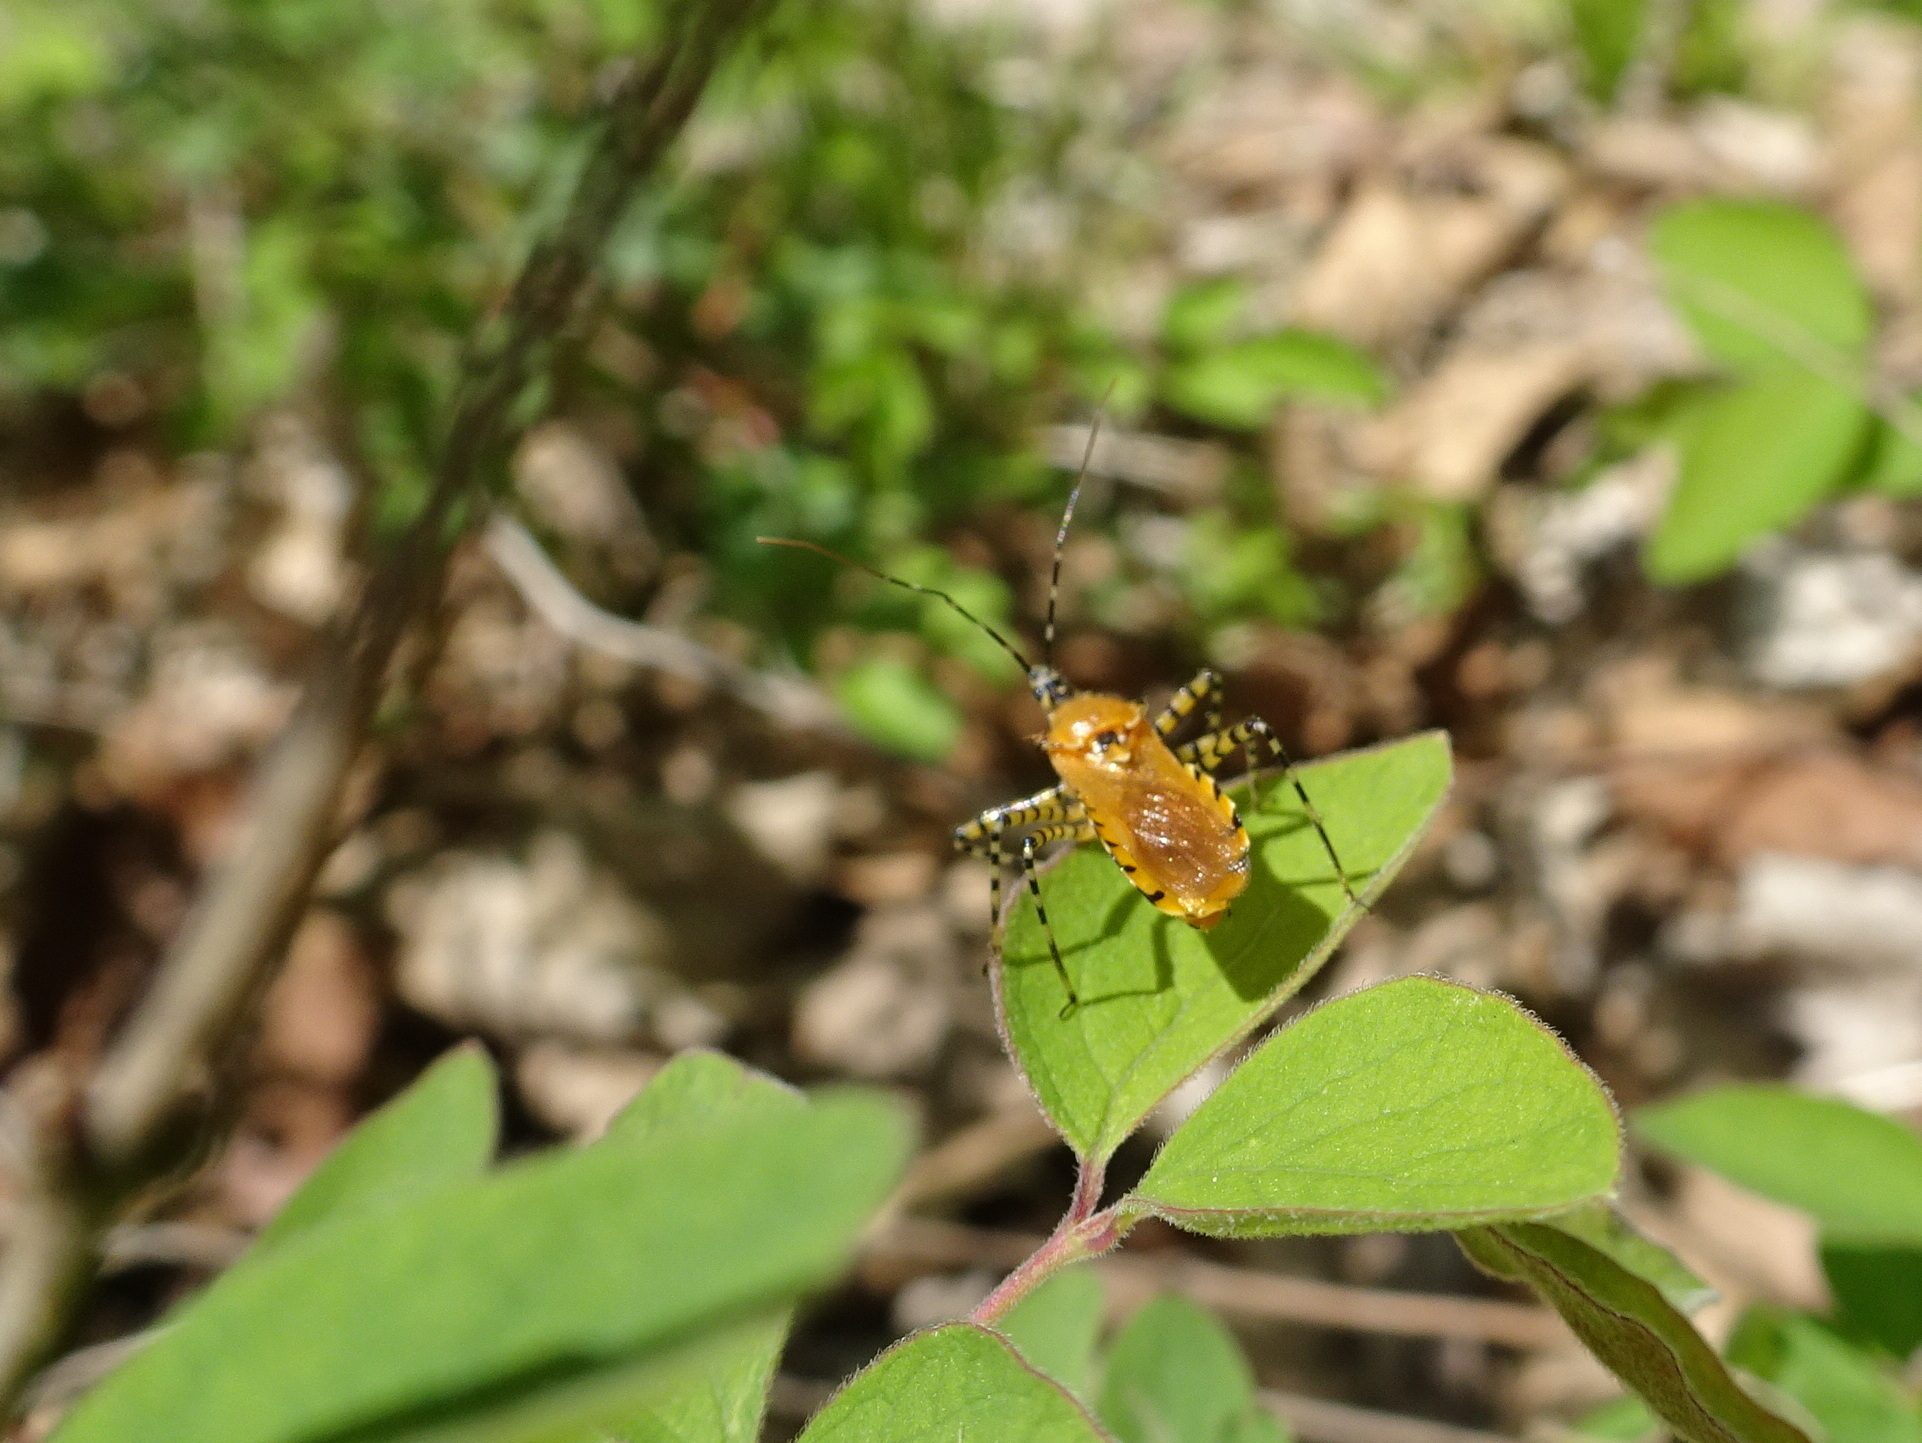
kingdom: Animalia
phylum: Arthropoda
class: Insecta
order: Hemiptera
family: Reduviidae
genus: Pselliopus
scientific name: Pselliopus barberi
